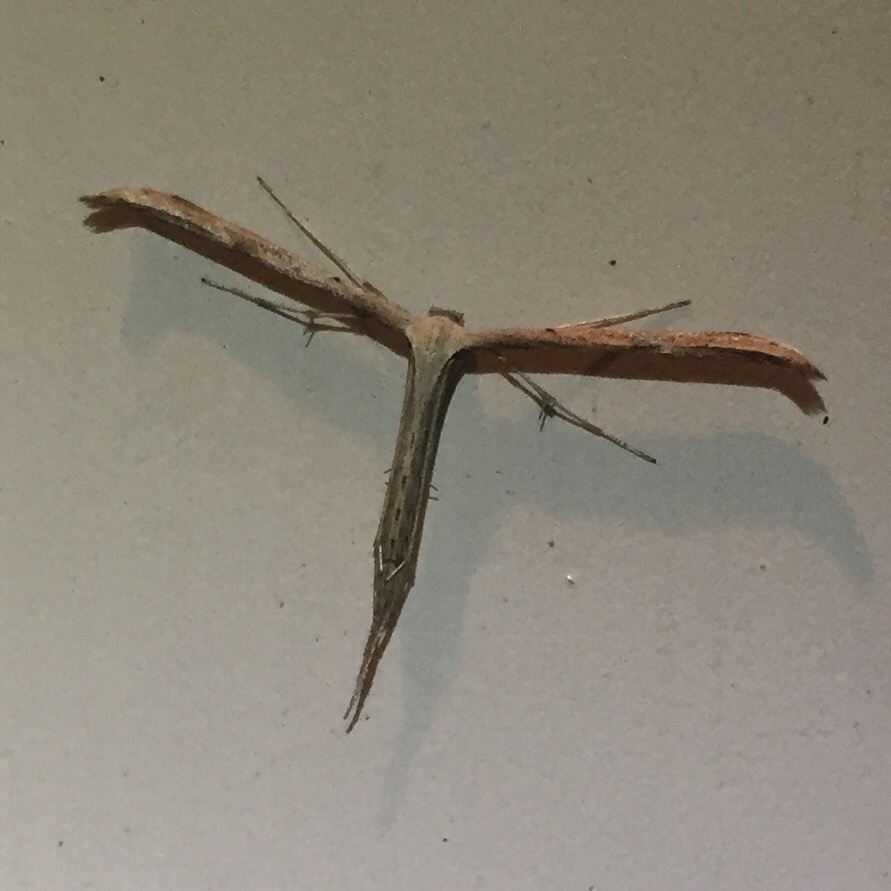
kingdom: Animalia
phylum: Arthropoda
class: Insecta
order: Lepidoptera
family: Pterophoridae
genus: Emmelina
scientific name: Emmelina monodactyla
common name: Common plume
